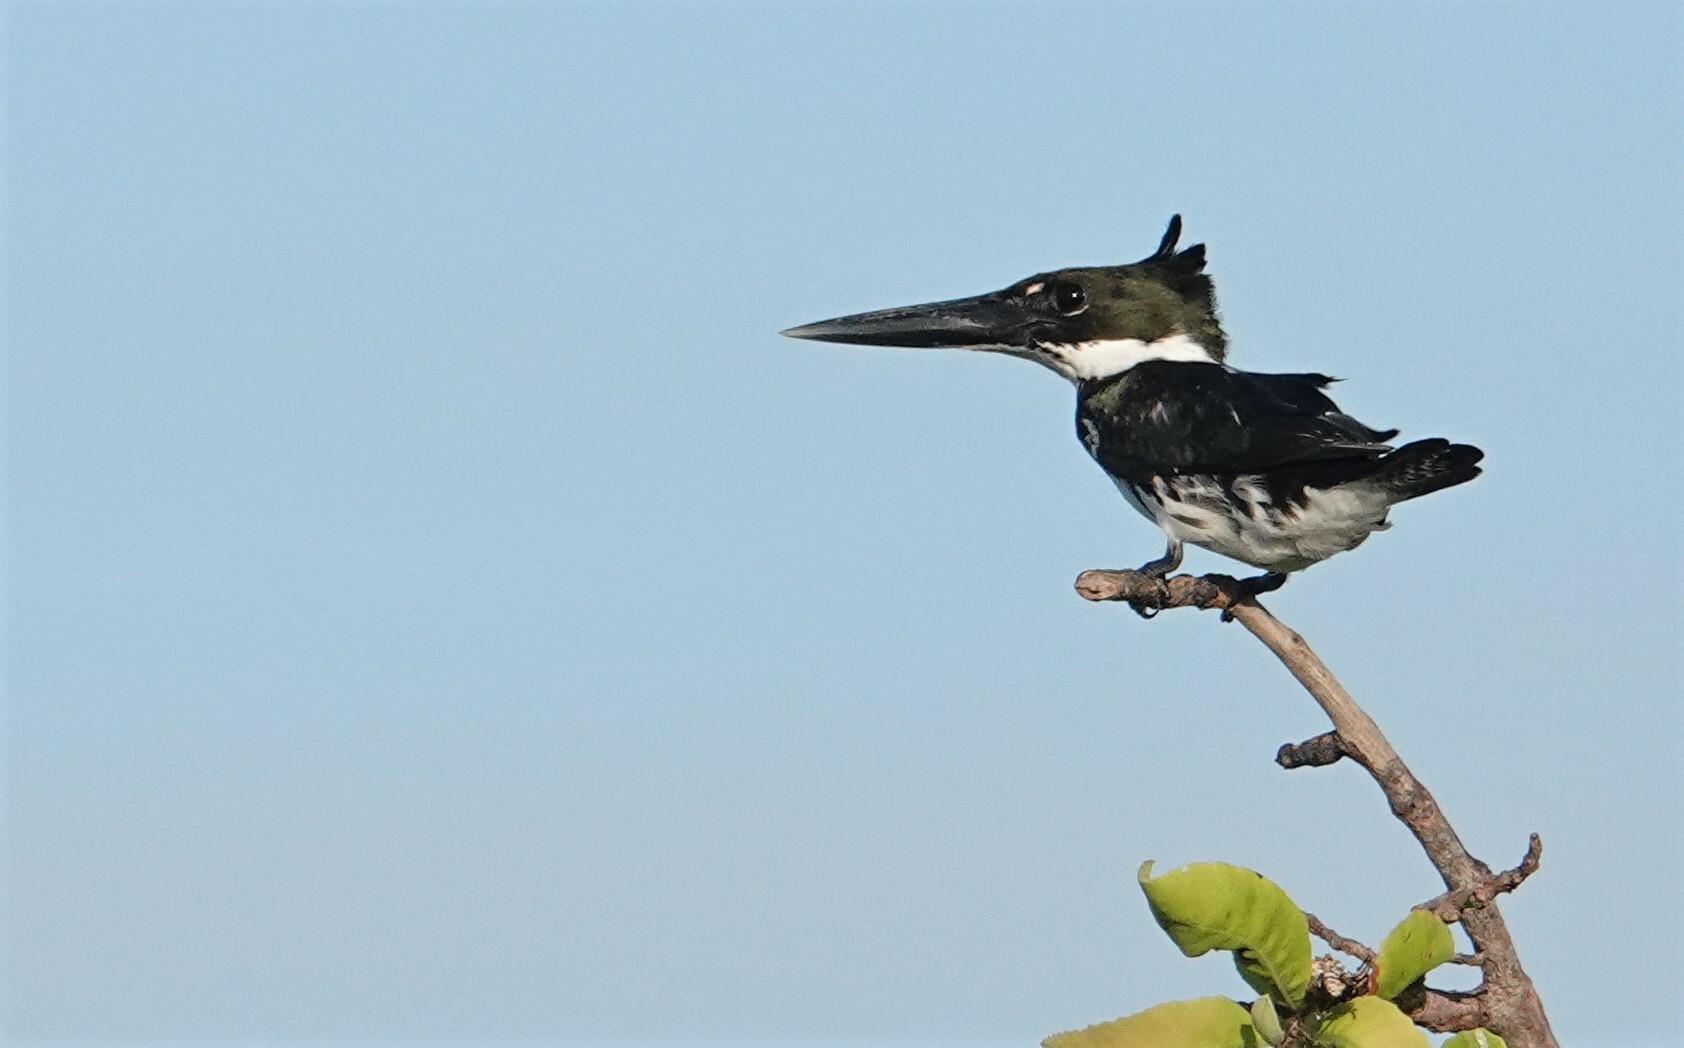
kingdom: Animalia
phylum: Chordata
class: Aves
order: Coraciiformes
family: Alcedinidae
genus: Chloroceryle
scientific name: Chloroceryle amazona
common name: Amazon kingfisher
